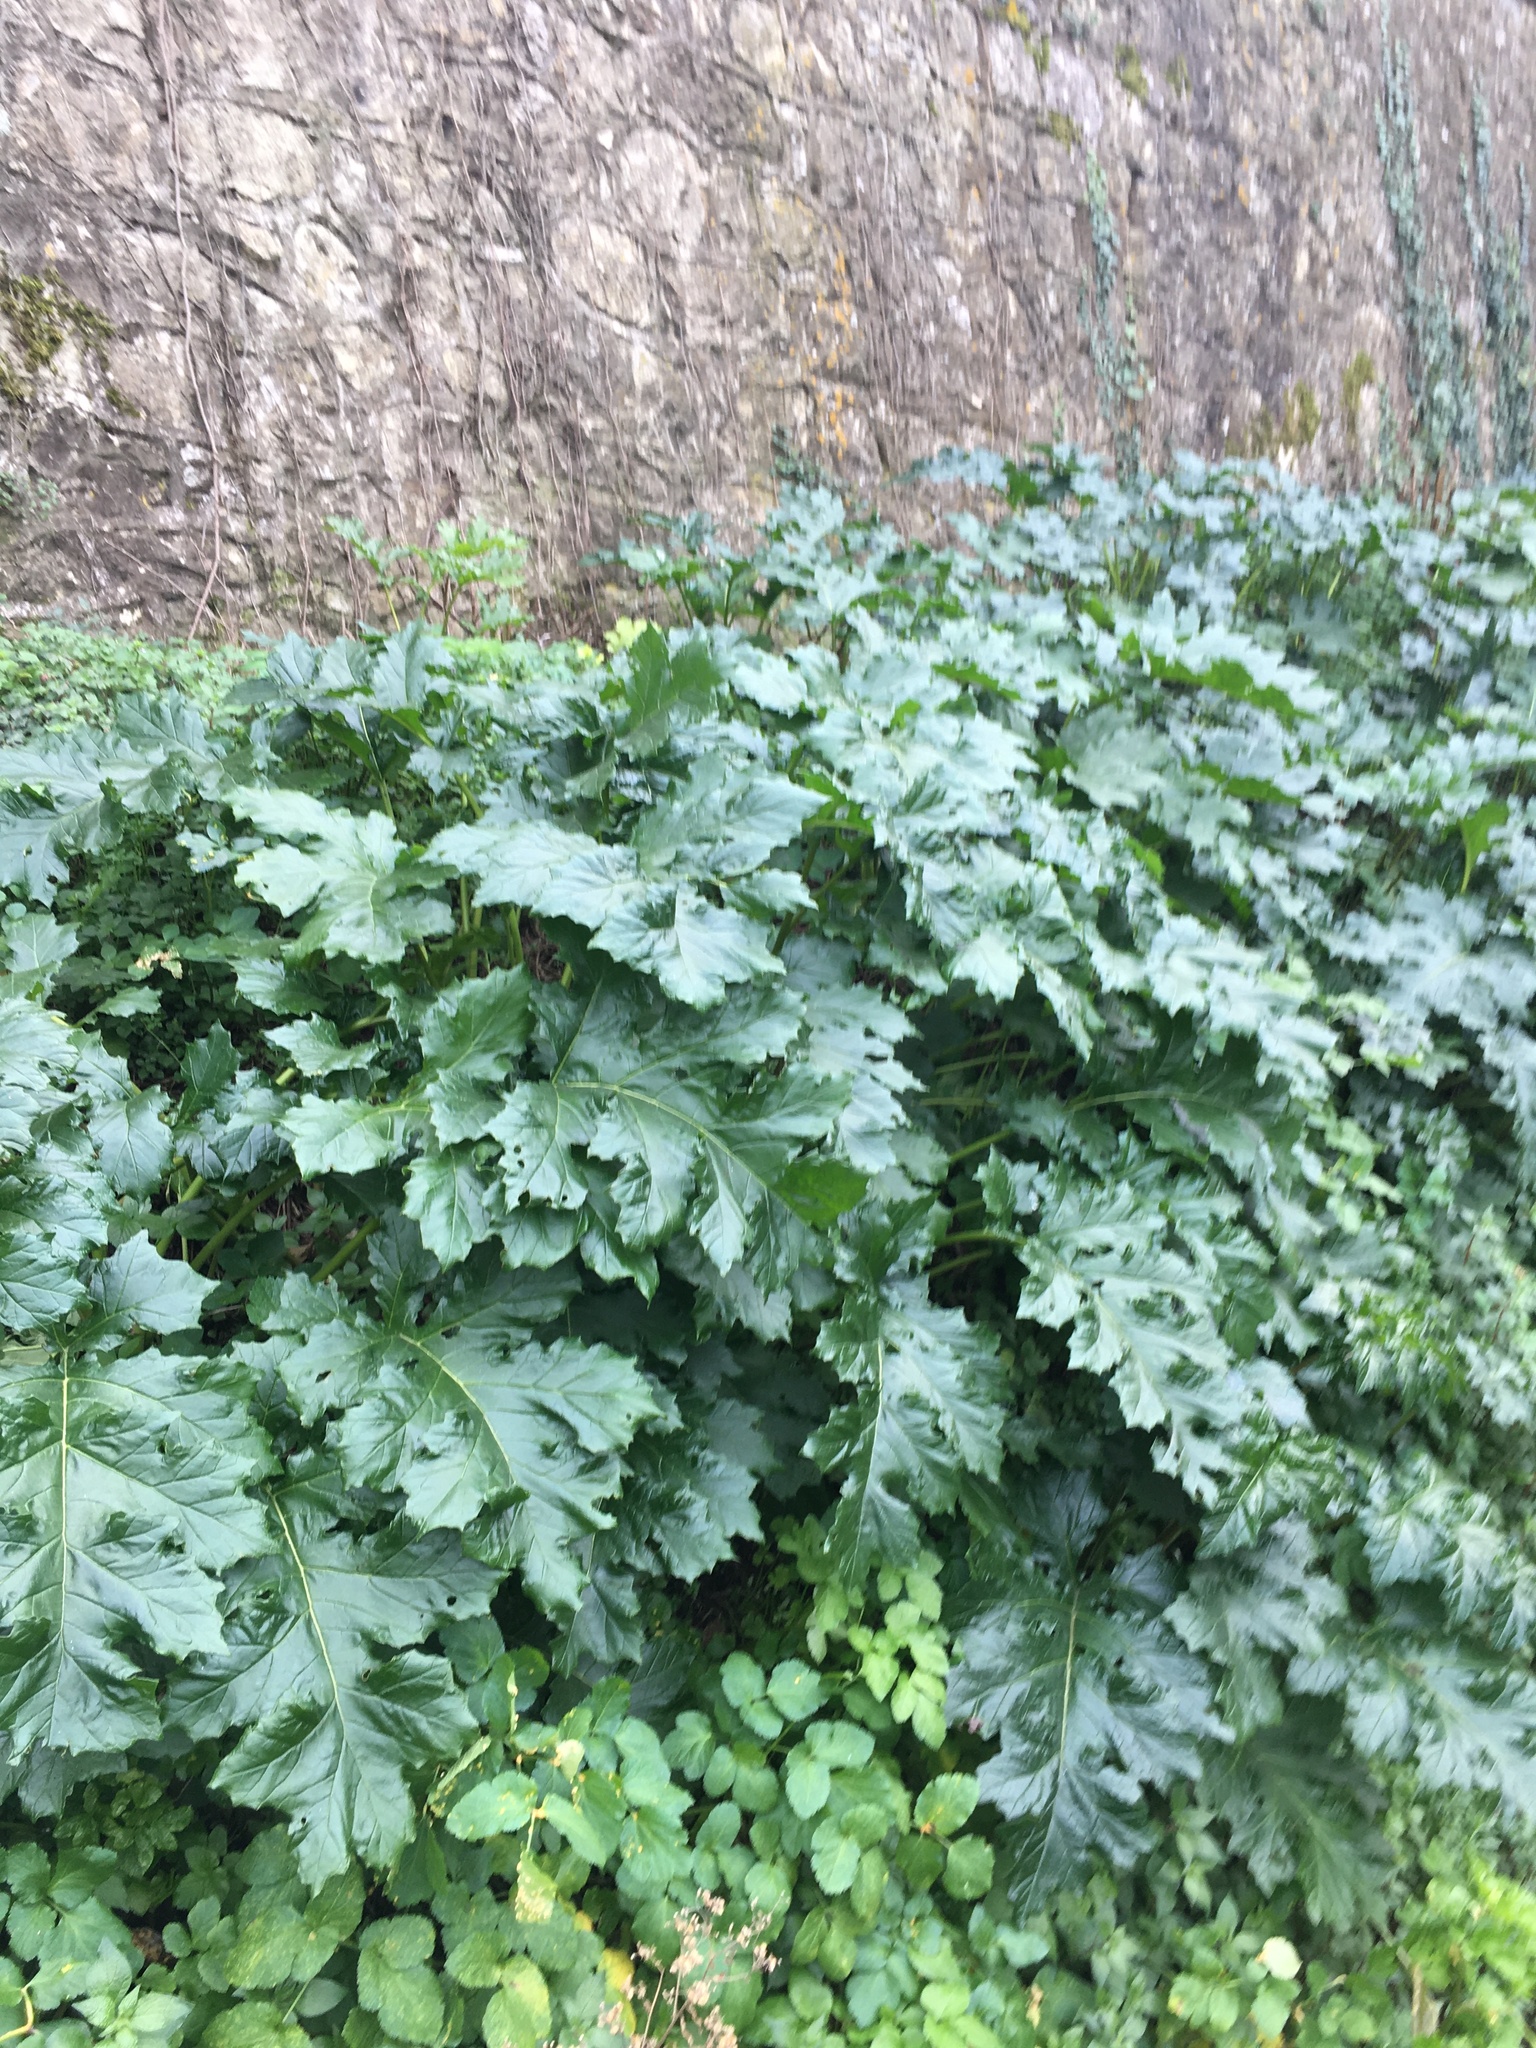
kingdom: Plantae
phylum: Tracheophyta
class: Magnoliopsida
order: Lamiales
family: Acanthaceae
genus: Acanthus
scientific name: Acanthus mollis
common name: Bear's-breech
